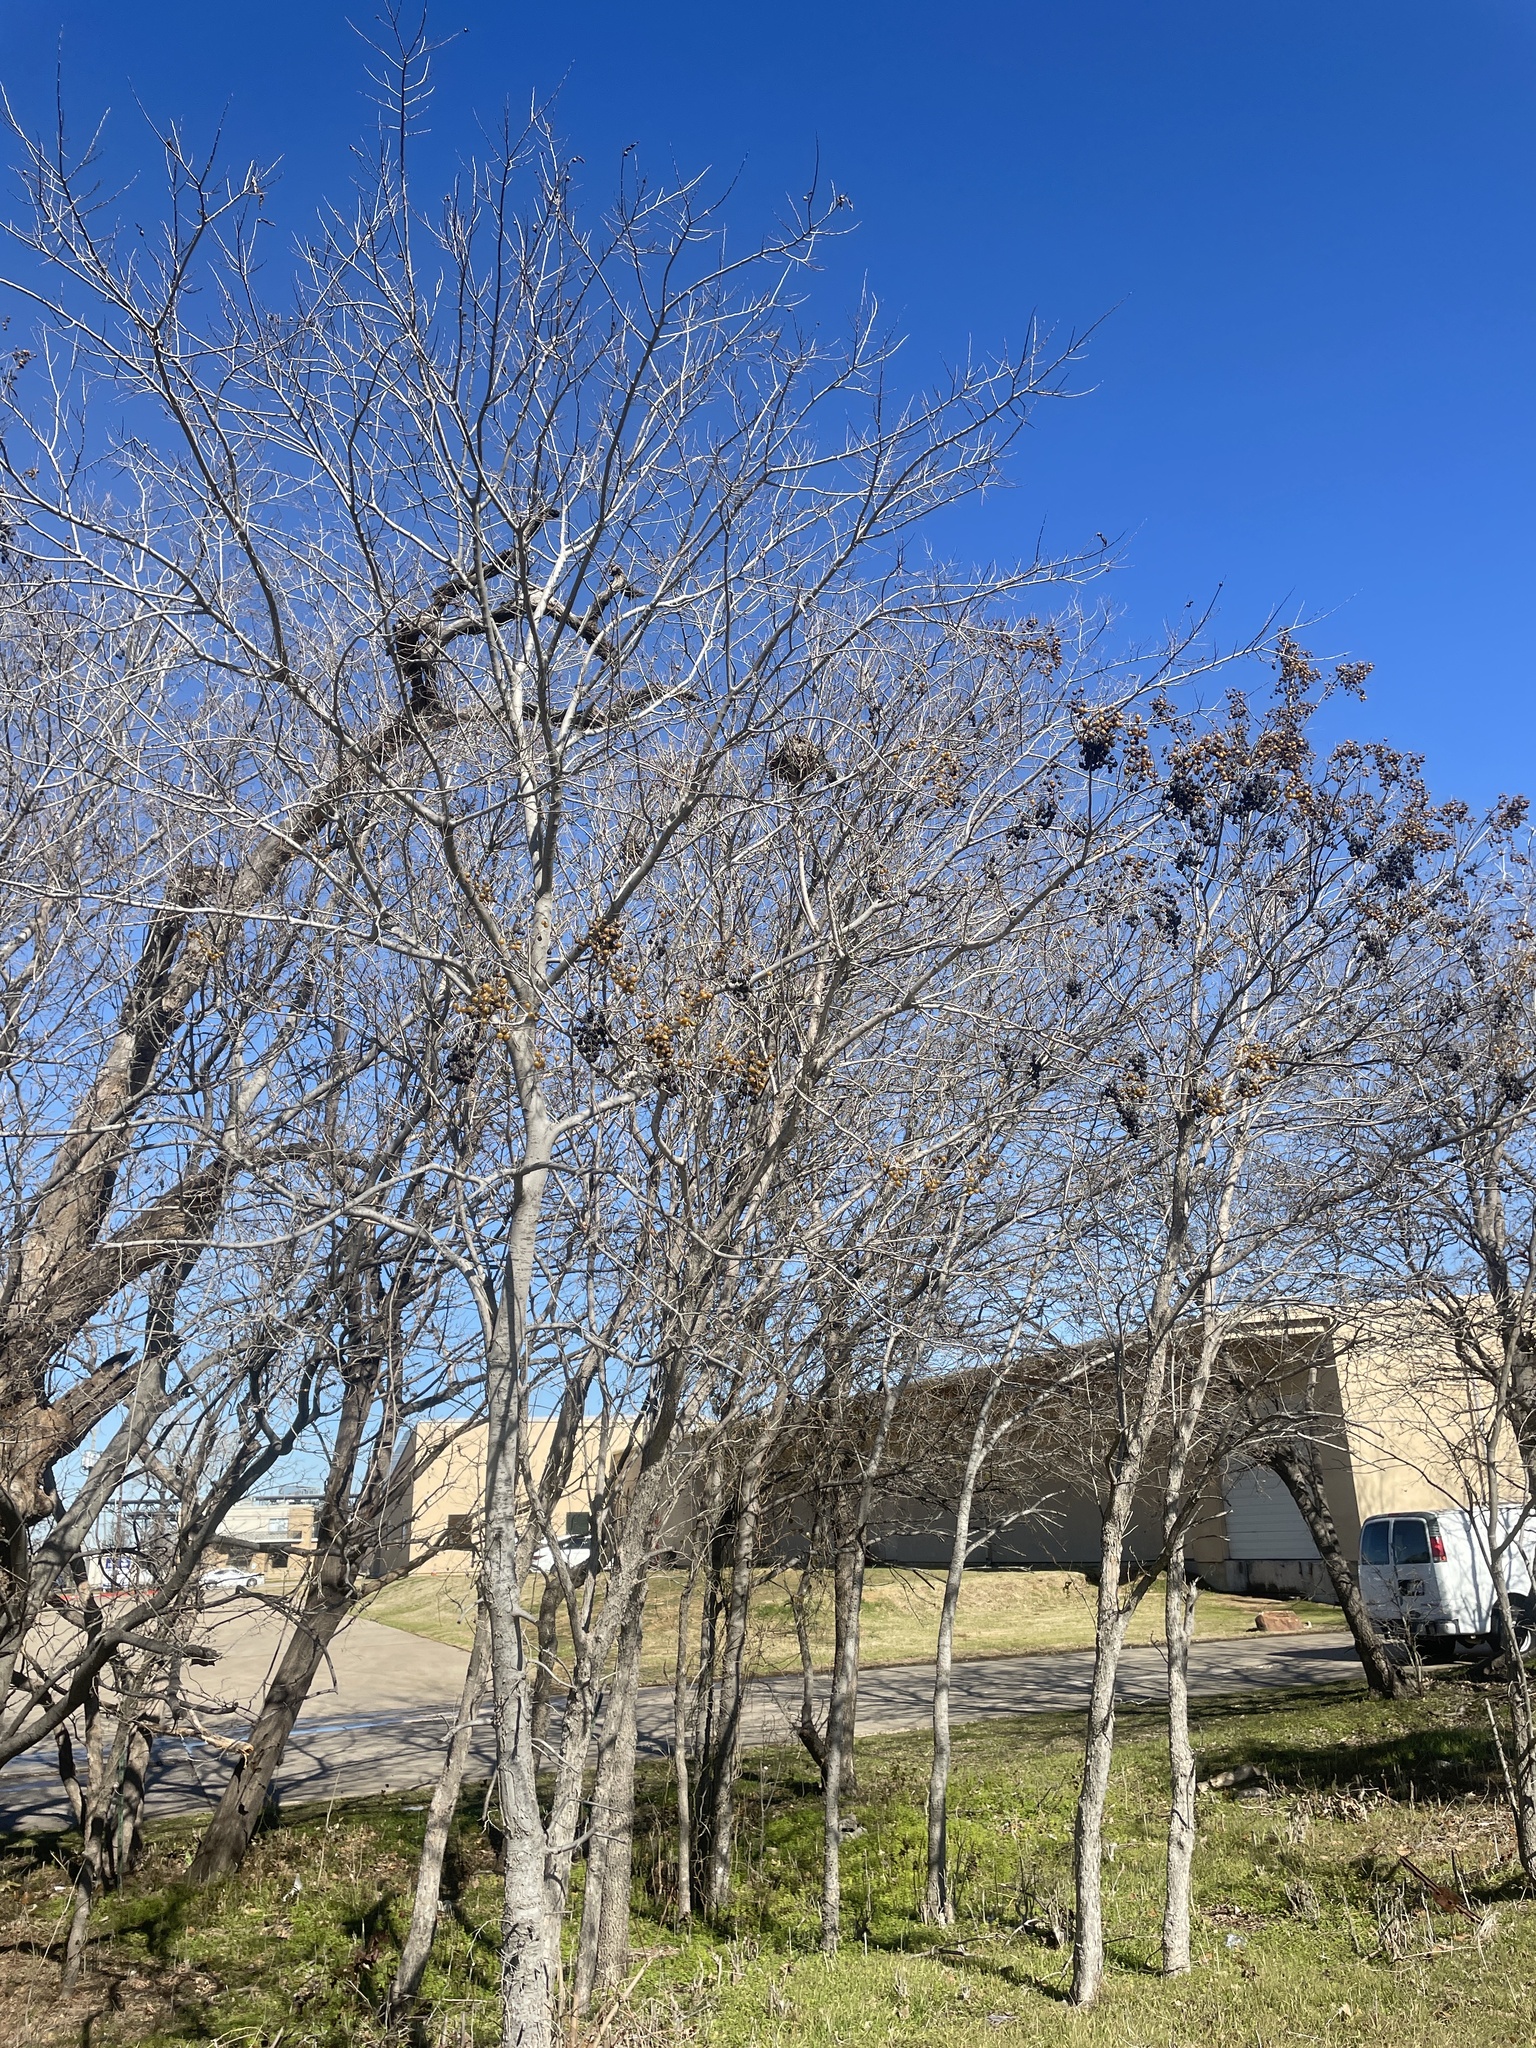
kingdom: Plantae
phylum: Tracheophyta
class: Magnoliopsida
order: Sapindales
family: Sapindaceae
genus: Sapindus
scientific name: Sapindus drummondii
